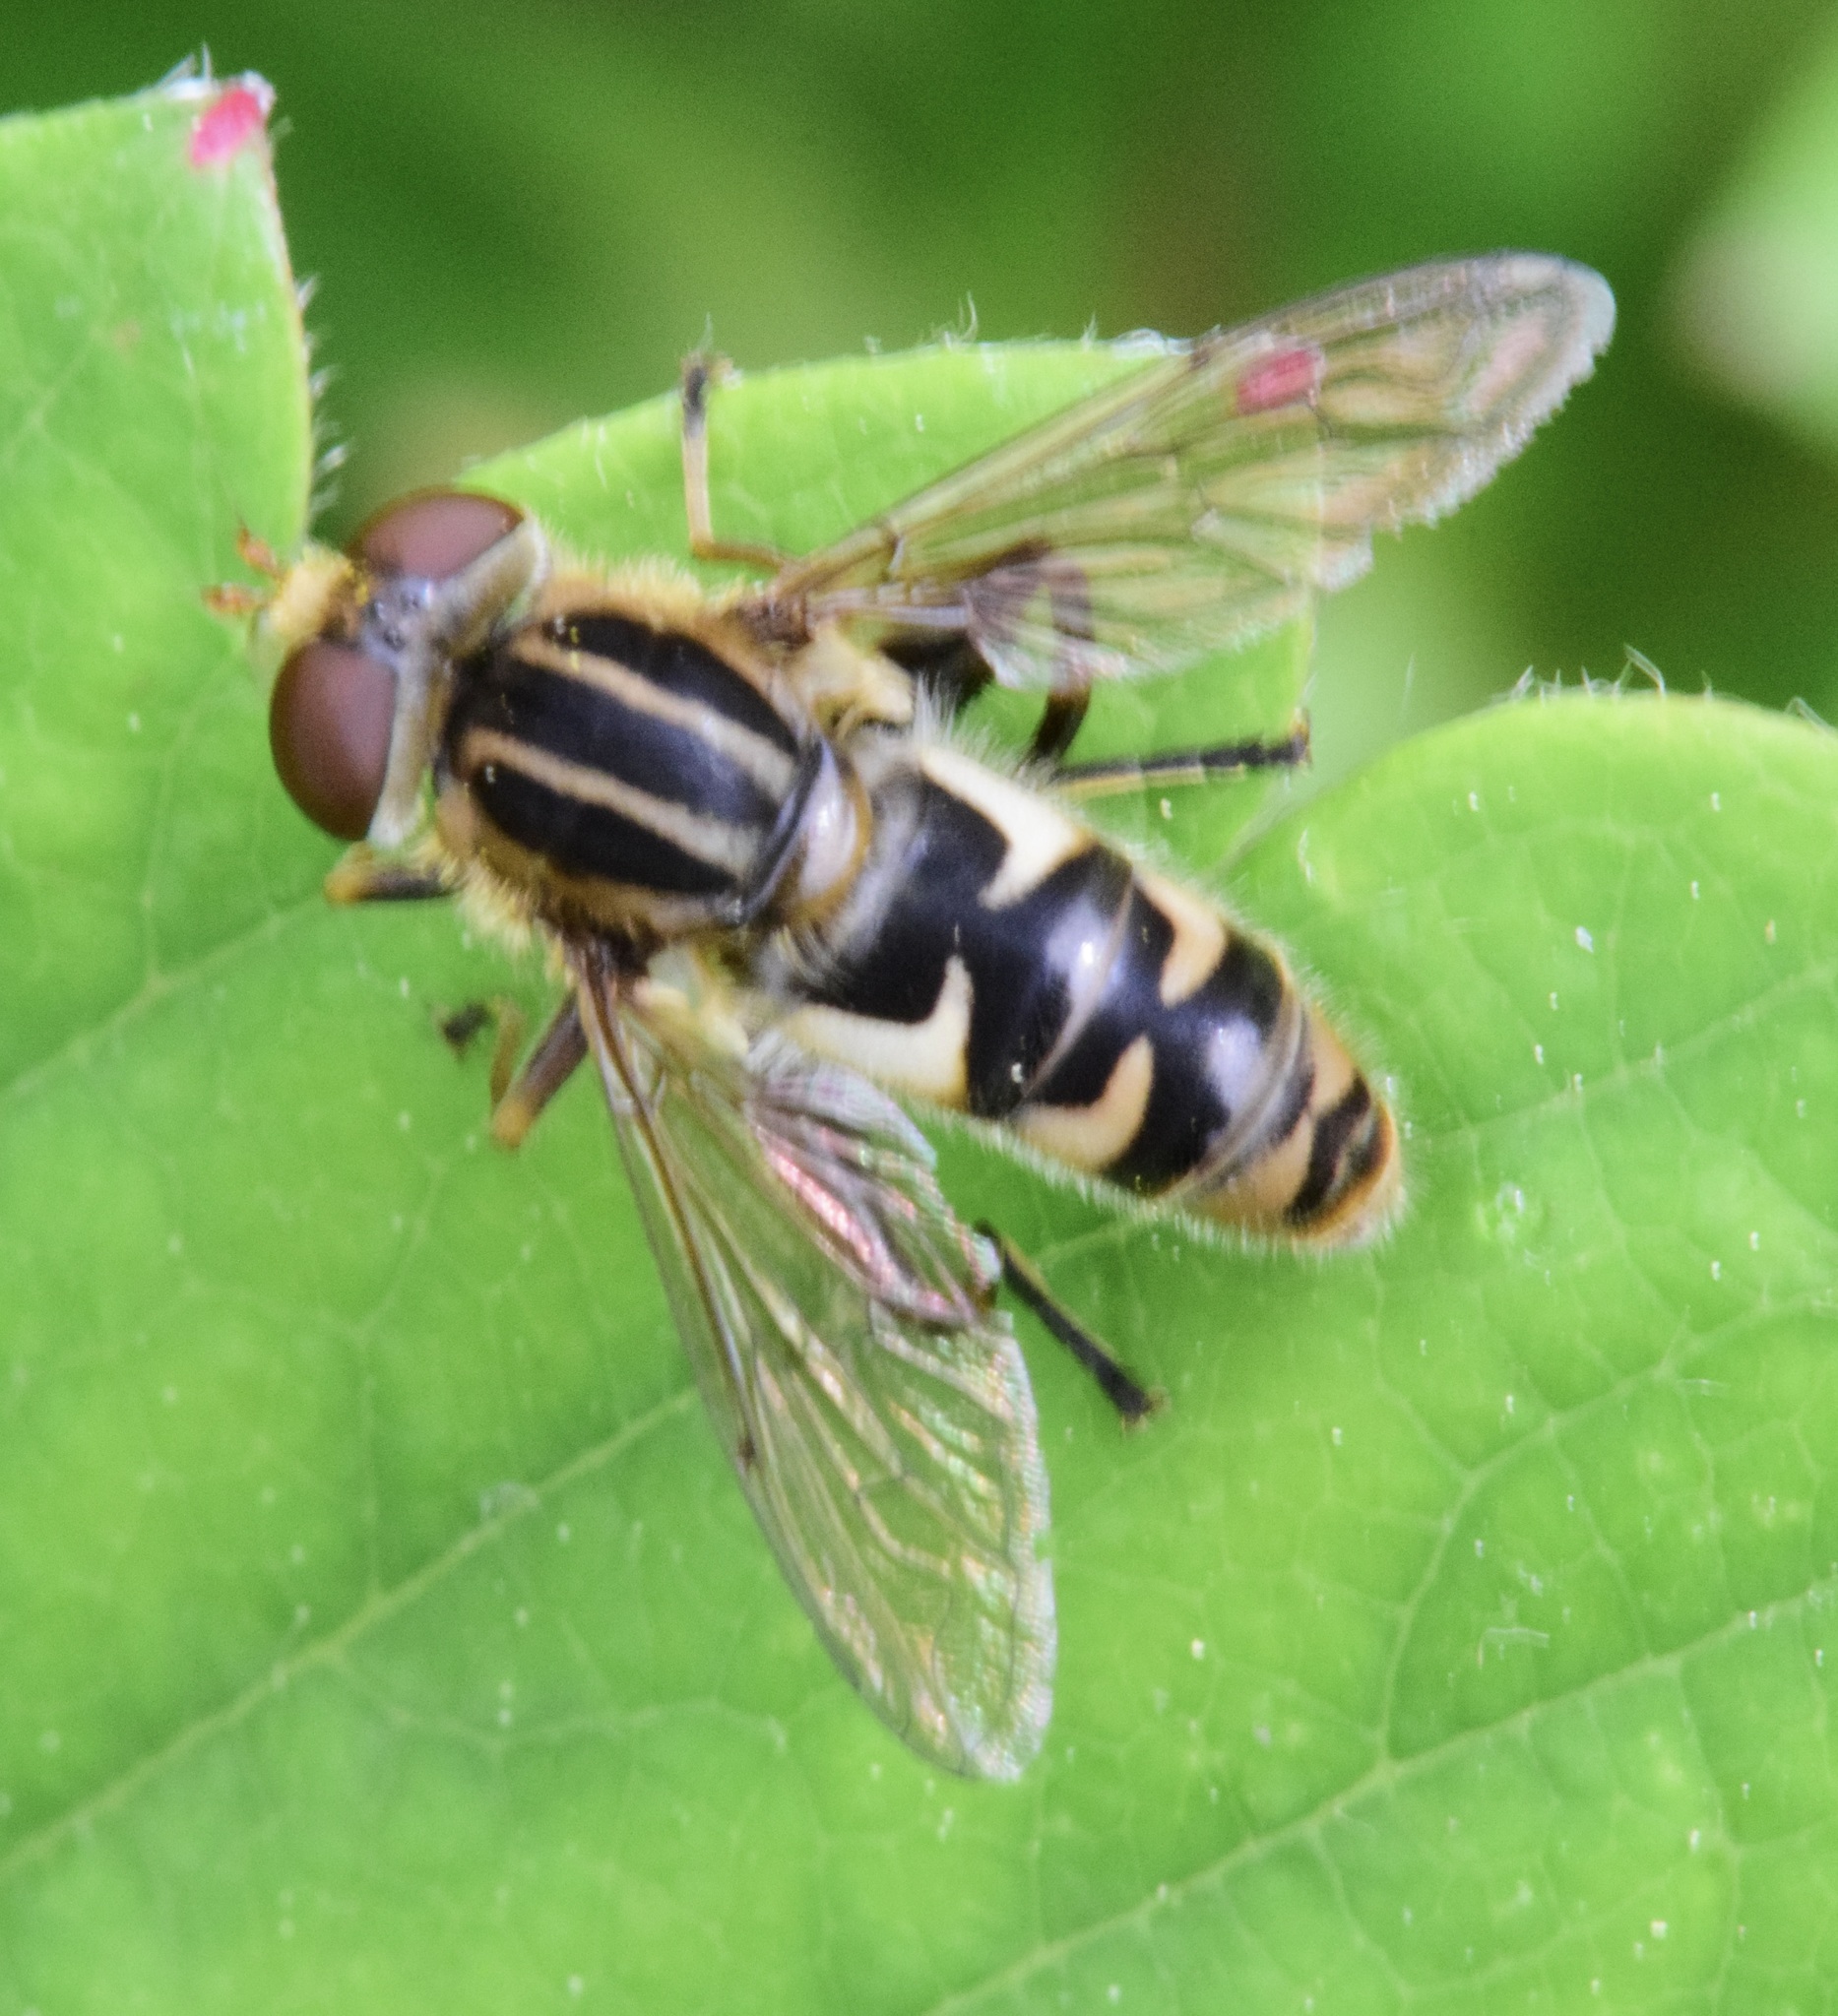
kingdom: Animalia
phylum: Arthropoda
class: Insecta
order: Diptera
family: Syrphidae
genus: Anasimyia
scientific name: Anasimyia
